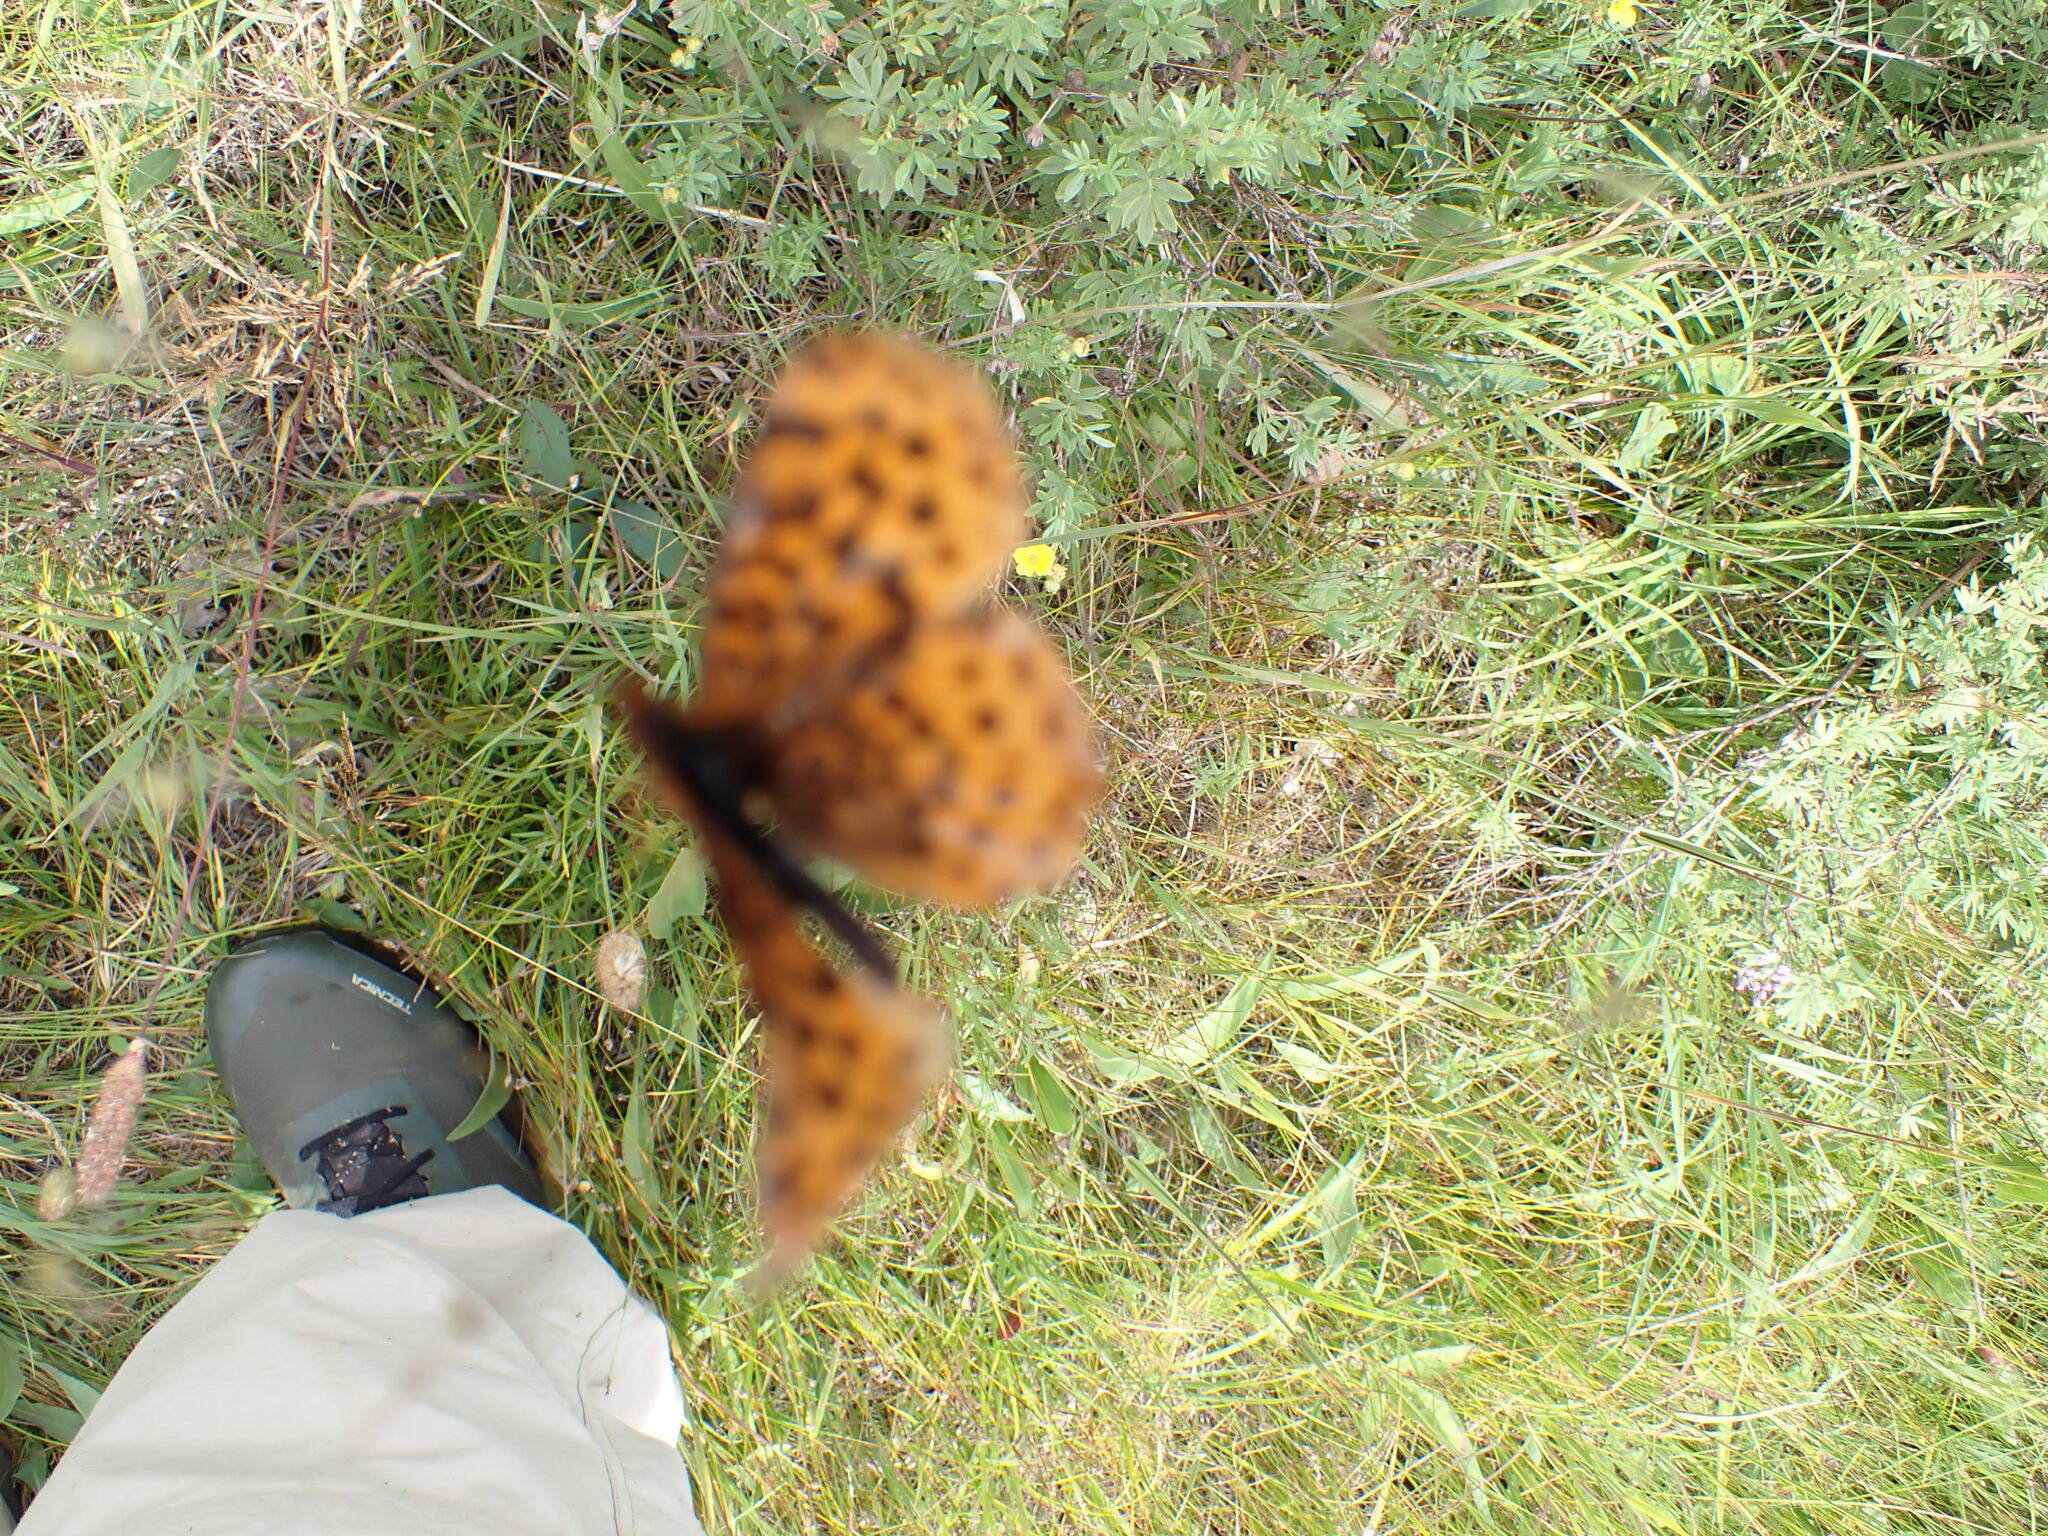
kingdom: Animalia
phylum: Arthropoda
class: Insecta
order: Lepidoptera
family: Nymphalidae
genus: Clossiana
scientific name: Clossiana toddi
